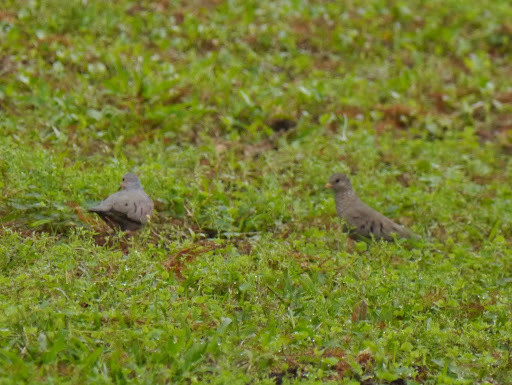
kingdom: Animalia
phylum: Chordata
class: Aves
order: Columbiformes
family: Columbidae
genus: Columbina
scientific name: Columbina passerina
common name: Common ground-dove
